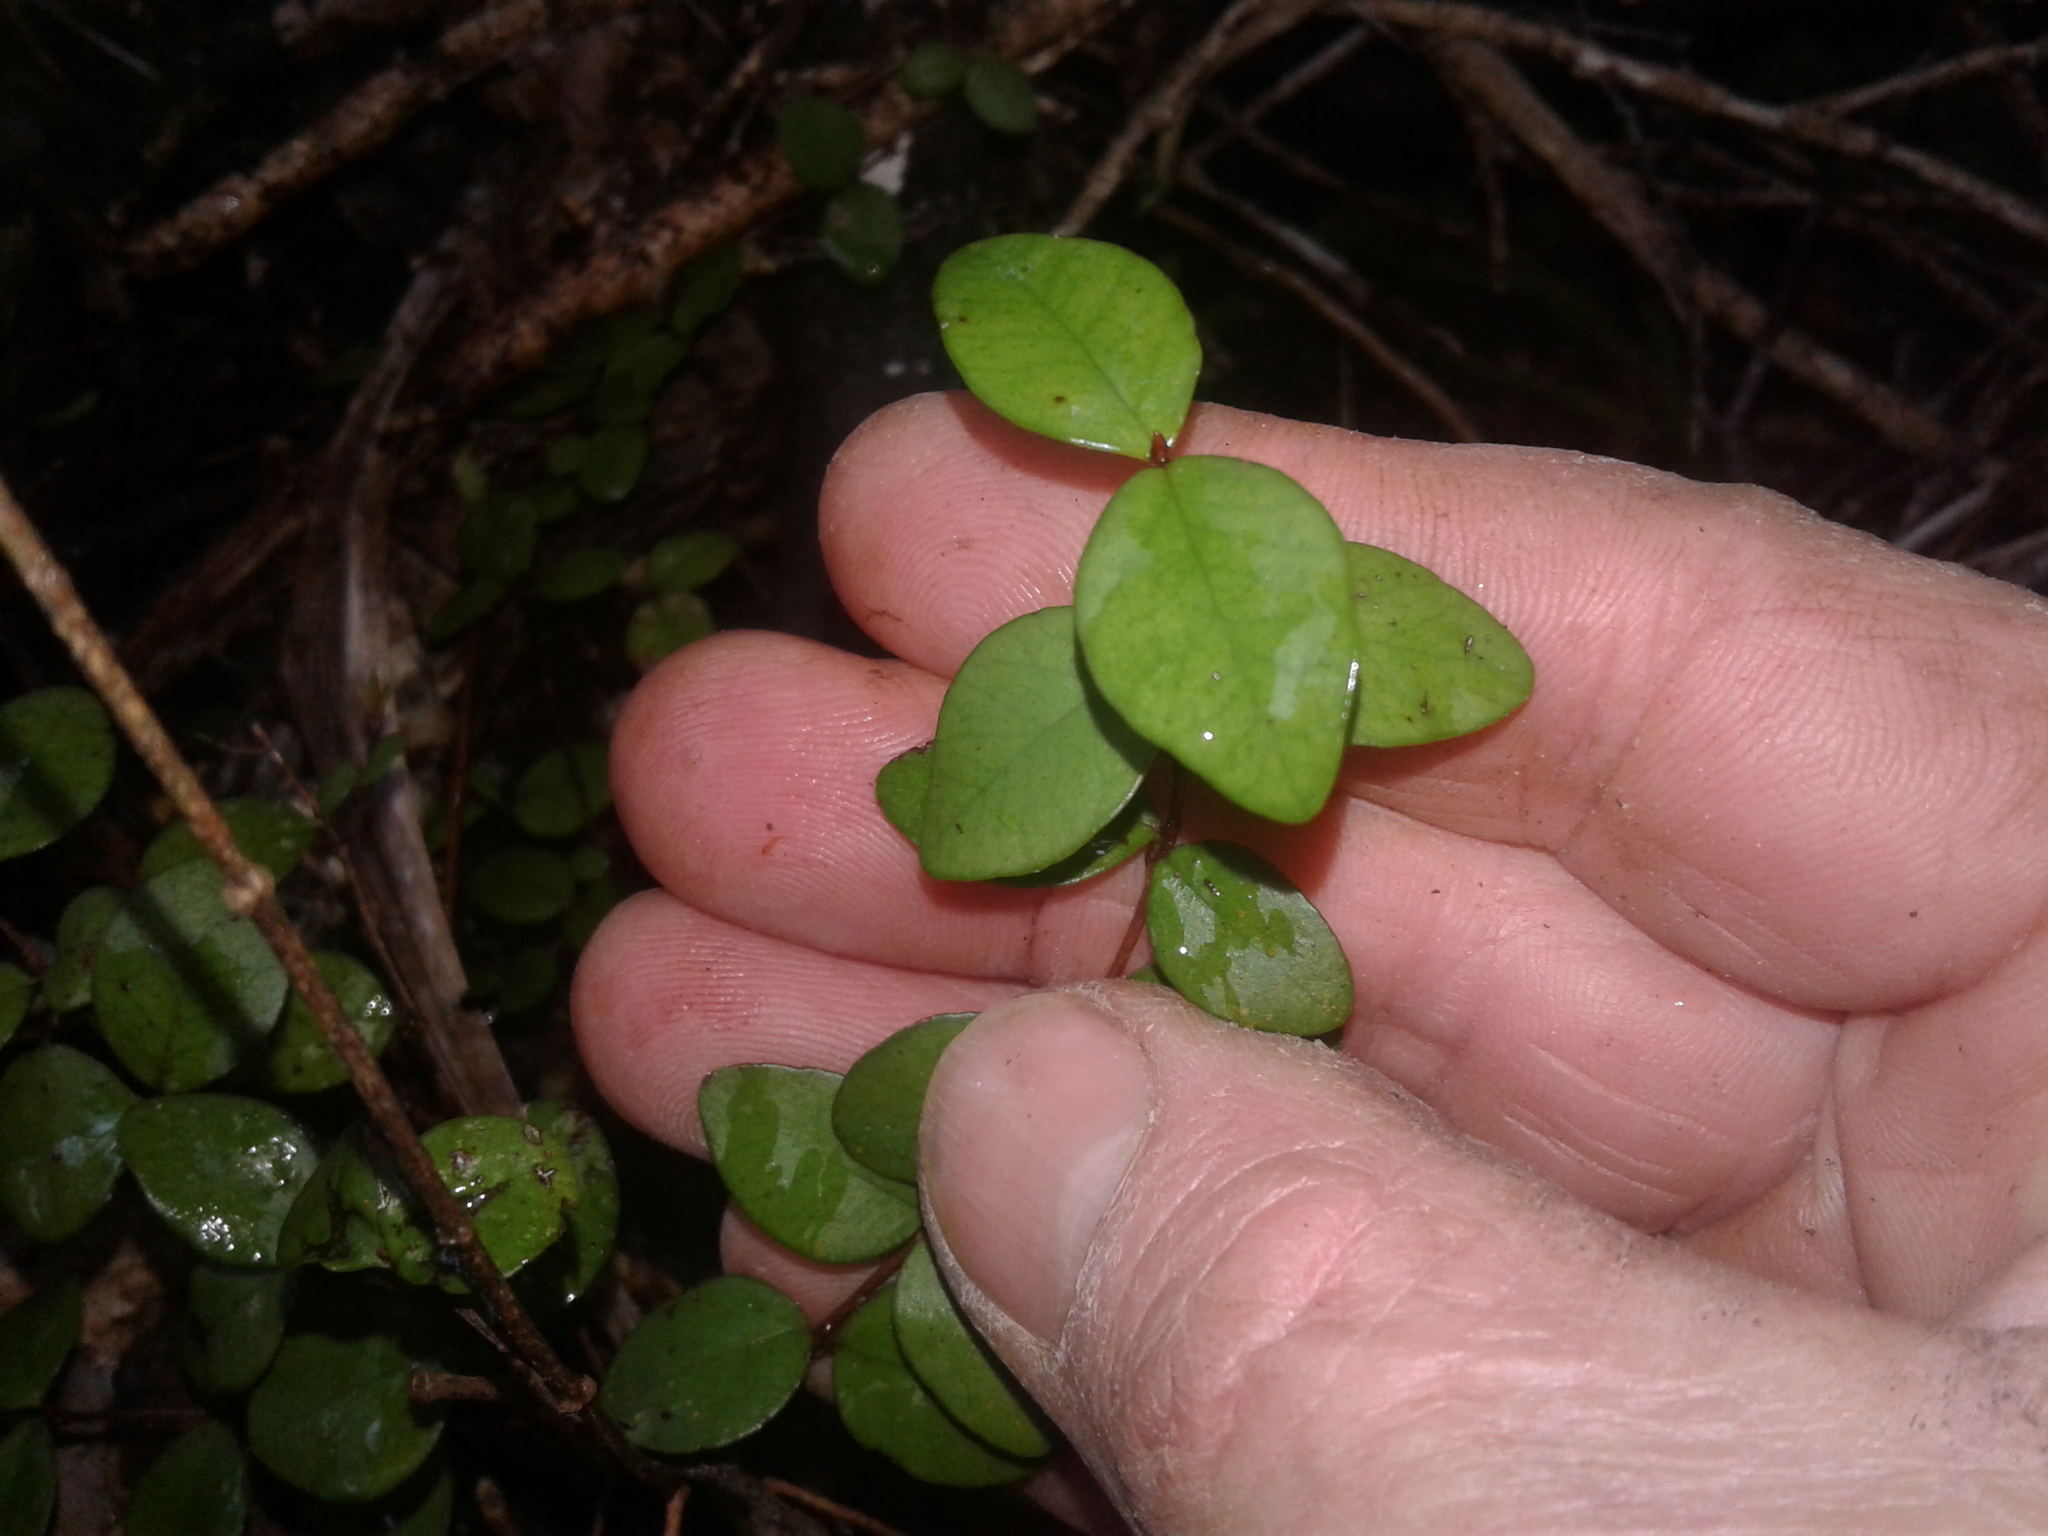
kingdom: Plantae
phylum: Tracheophyta
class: Magnoliopsida
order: Myrtales
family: Myrtaceae
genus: Metrosideros
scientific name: Metrosideros fulgens
